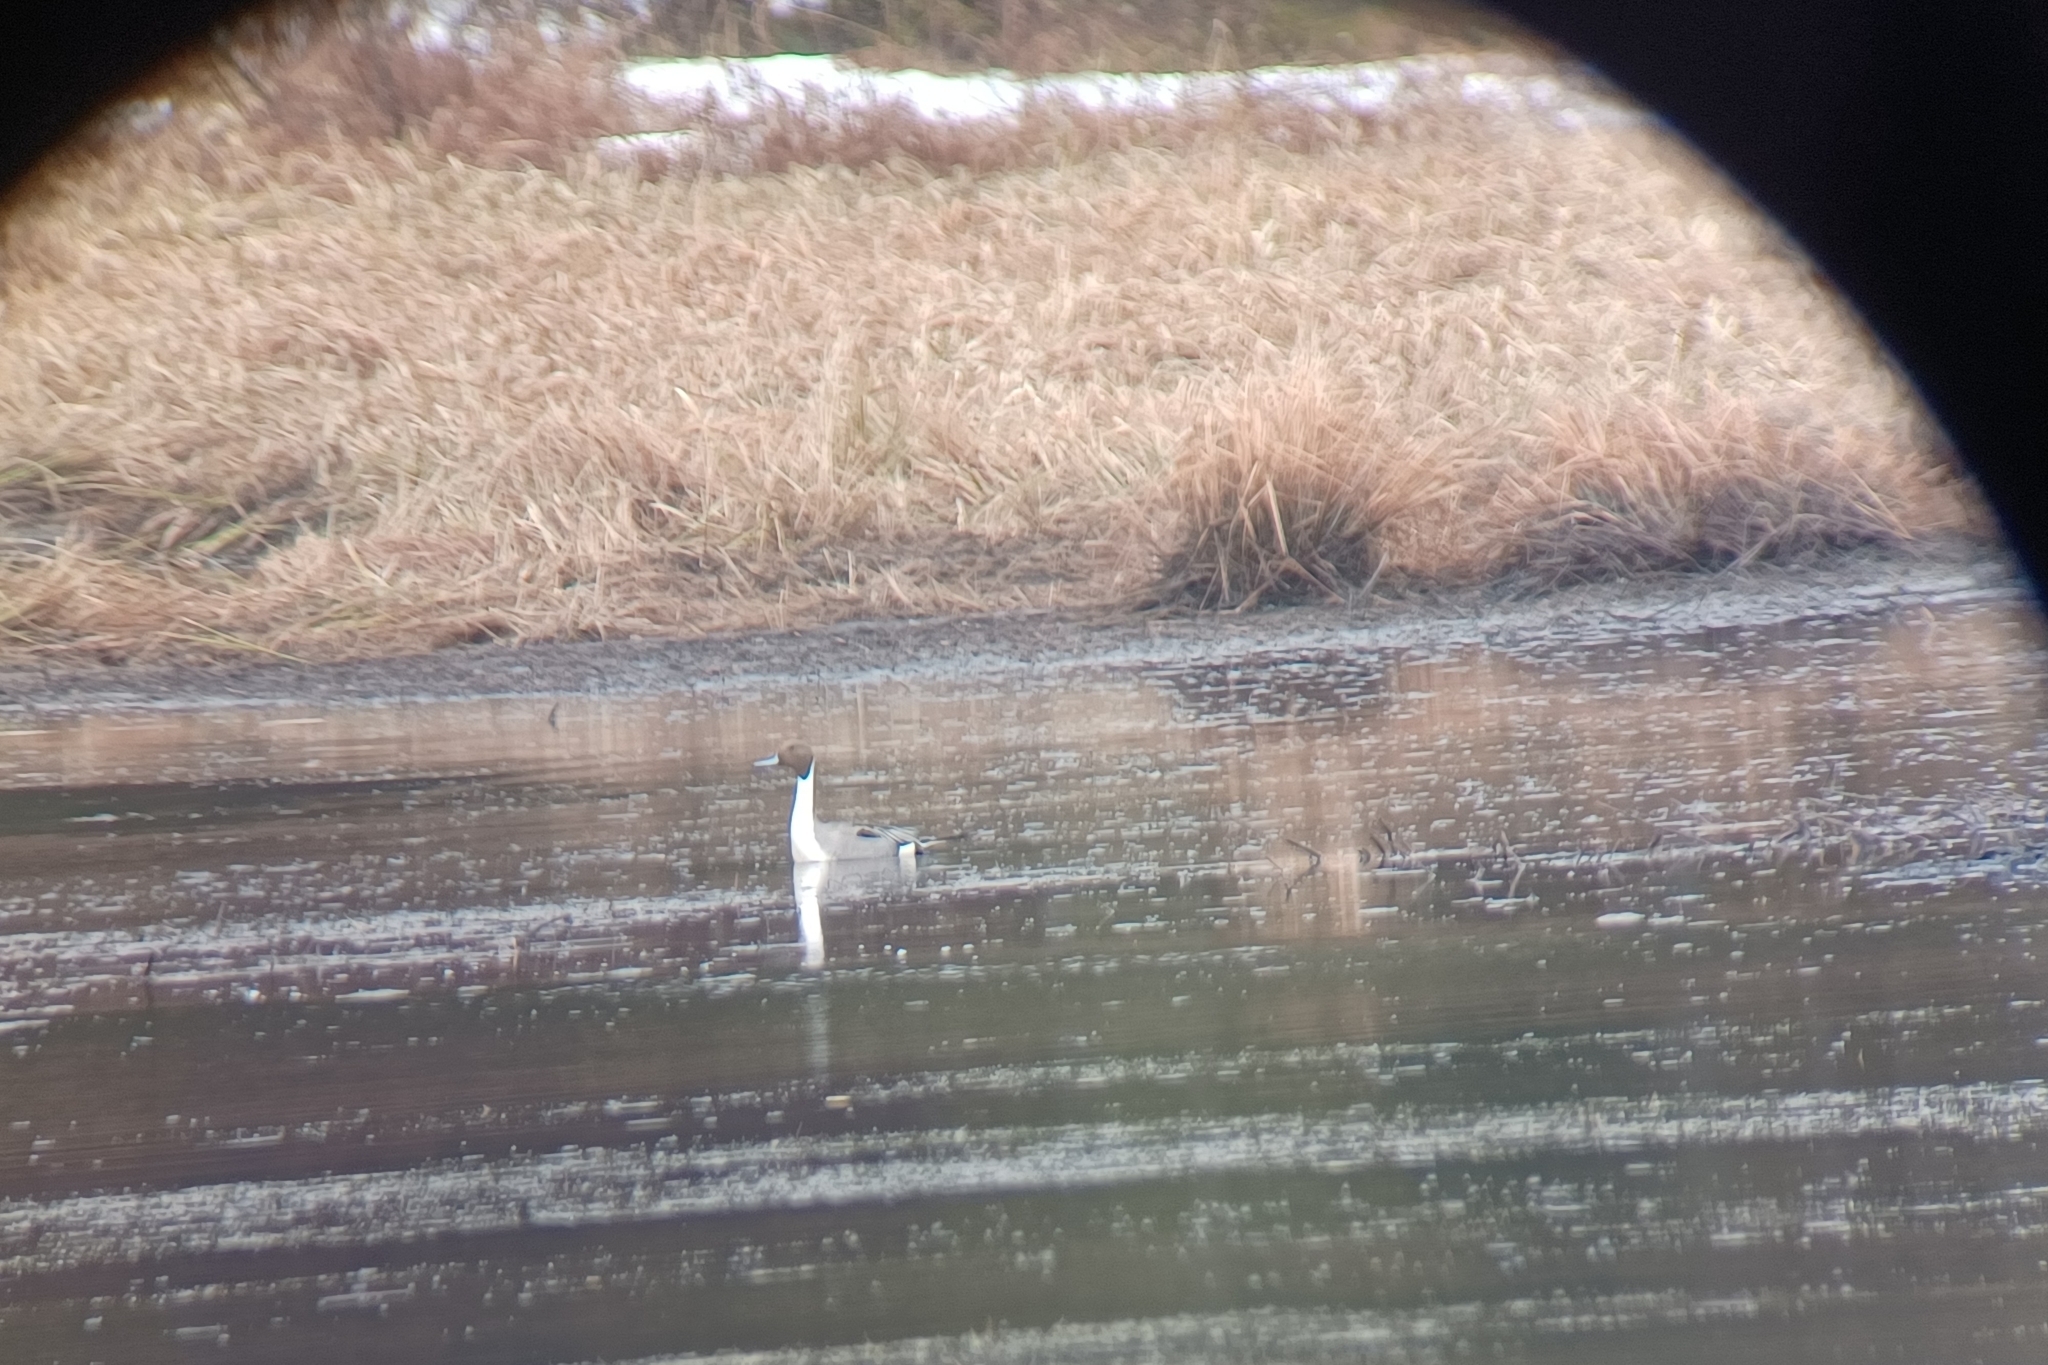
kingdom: Animalia
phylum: Chordata
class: Aves
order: Anseriformes
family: Anatidae
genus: Anas
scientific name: Anas acuta
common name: Northern pintail
